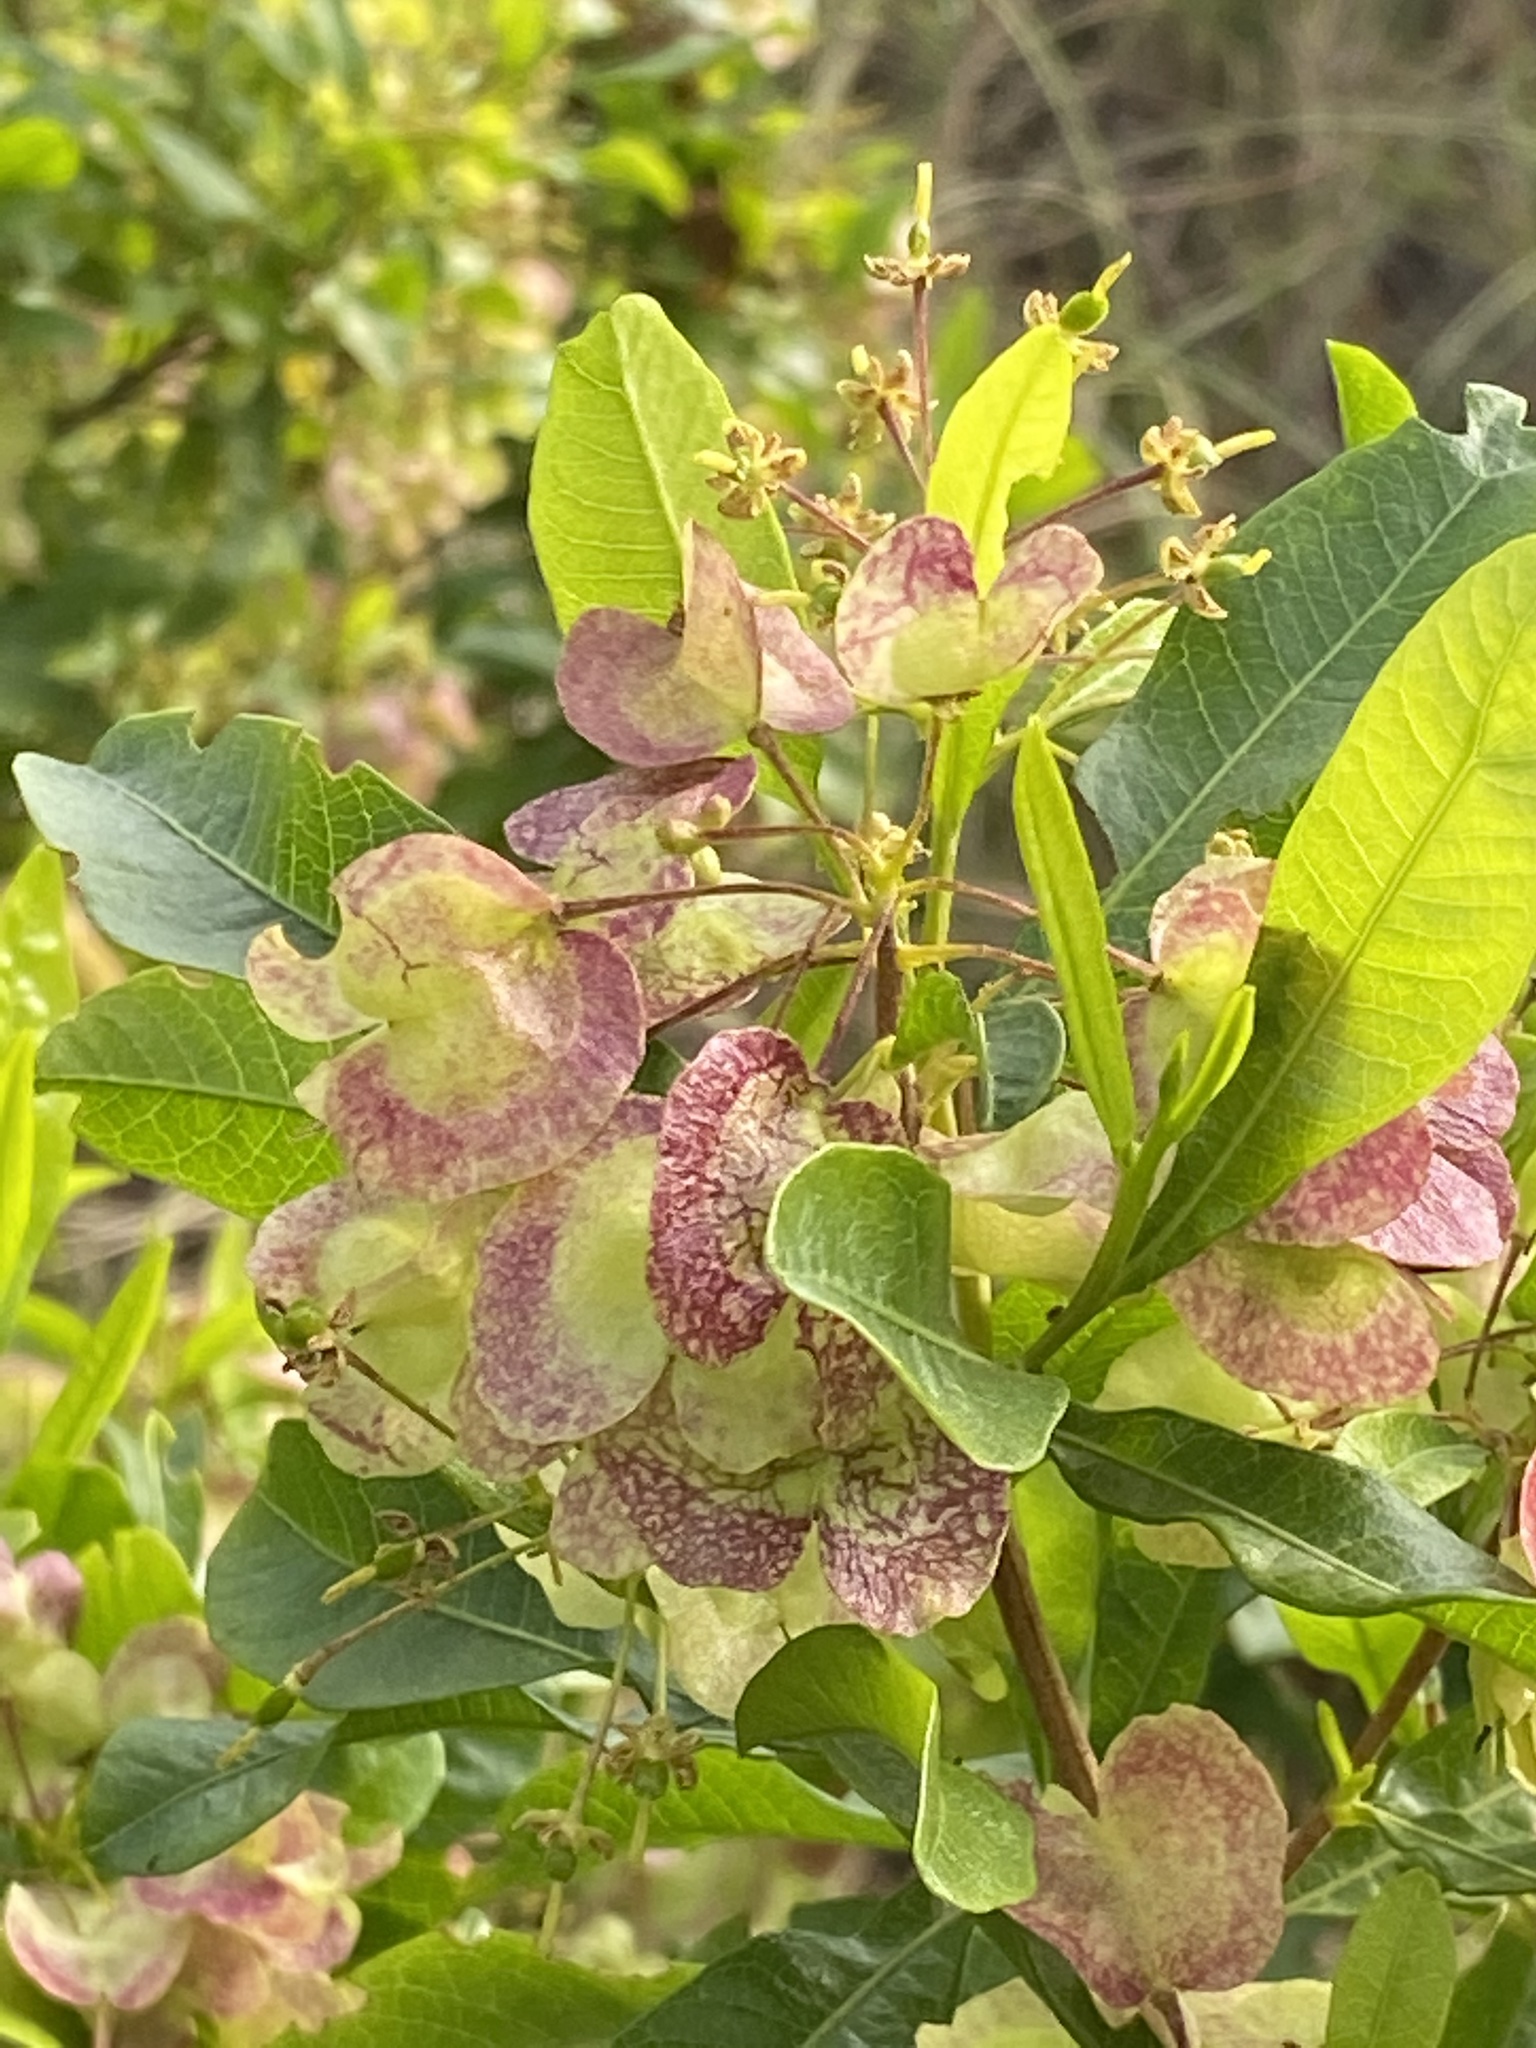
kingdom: Plantae
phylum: Tracheophyta
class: Magnoliopsida
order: Sapindales
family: Sapindaceae
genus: Dodonaea
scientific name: Dodonaea viscosa
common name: Hopbush
